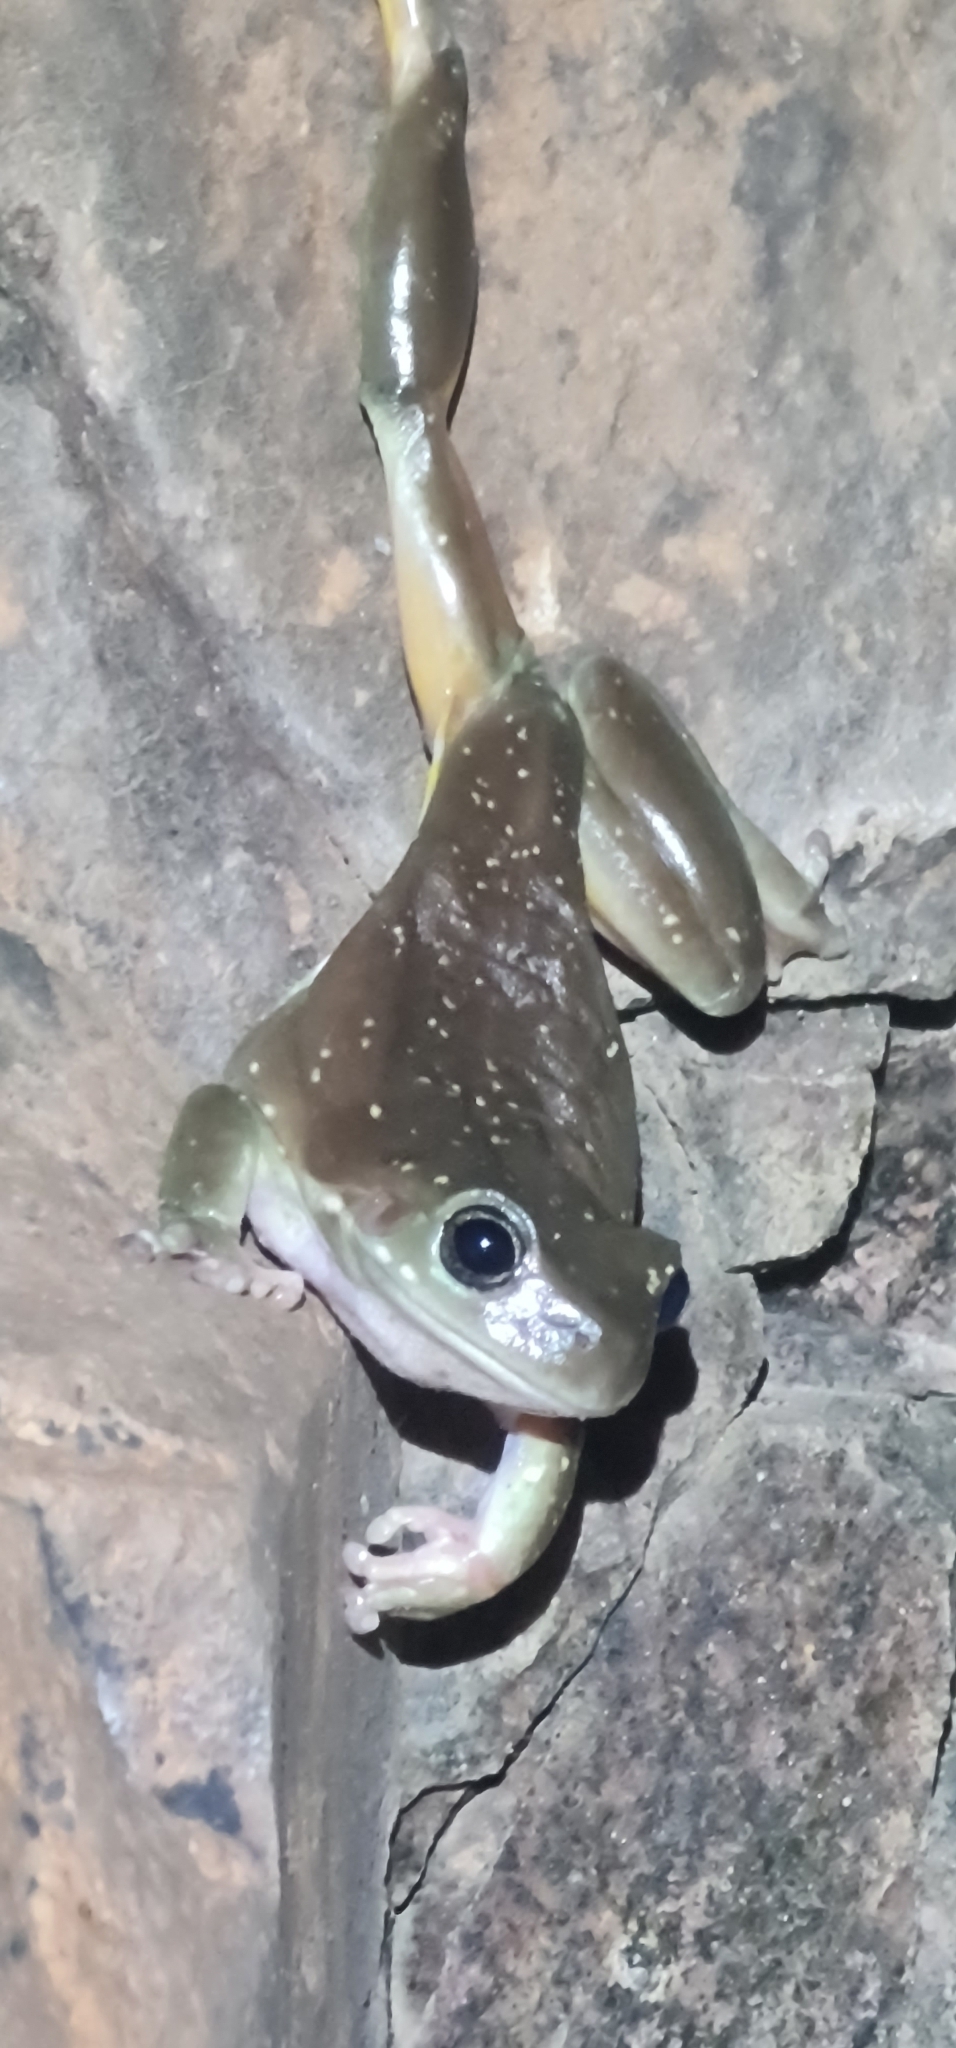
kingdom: Animalia
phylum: Chordata
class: Amphibia
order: Anura
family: Pelodryadidae
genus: Ranoidea
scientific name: Ranoidea gilleni
